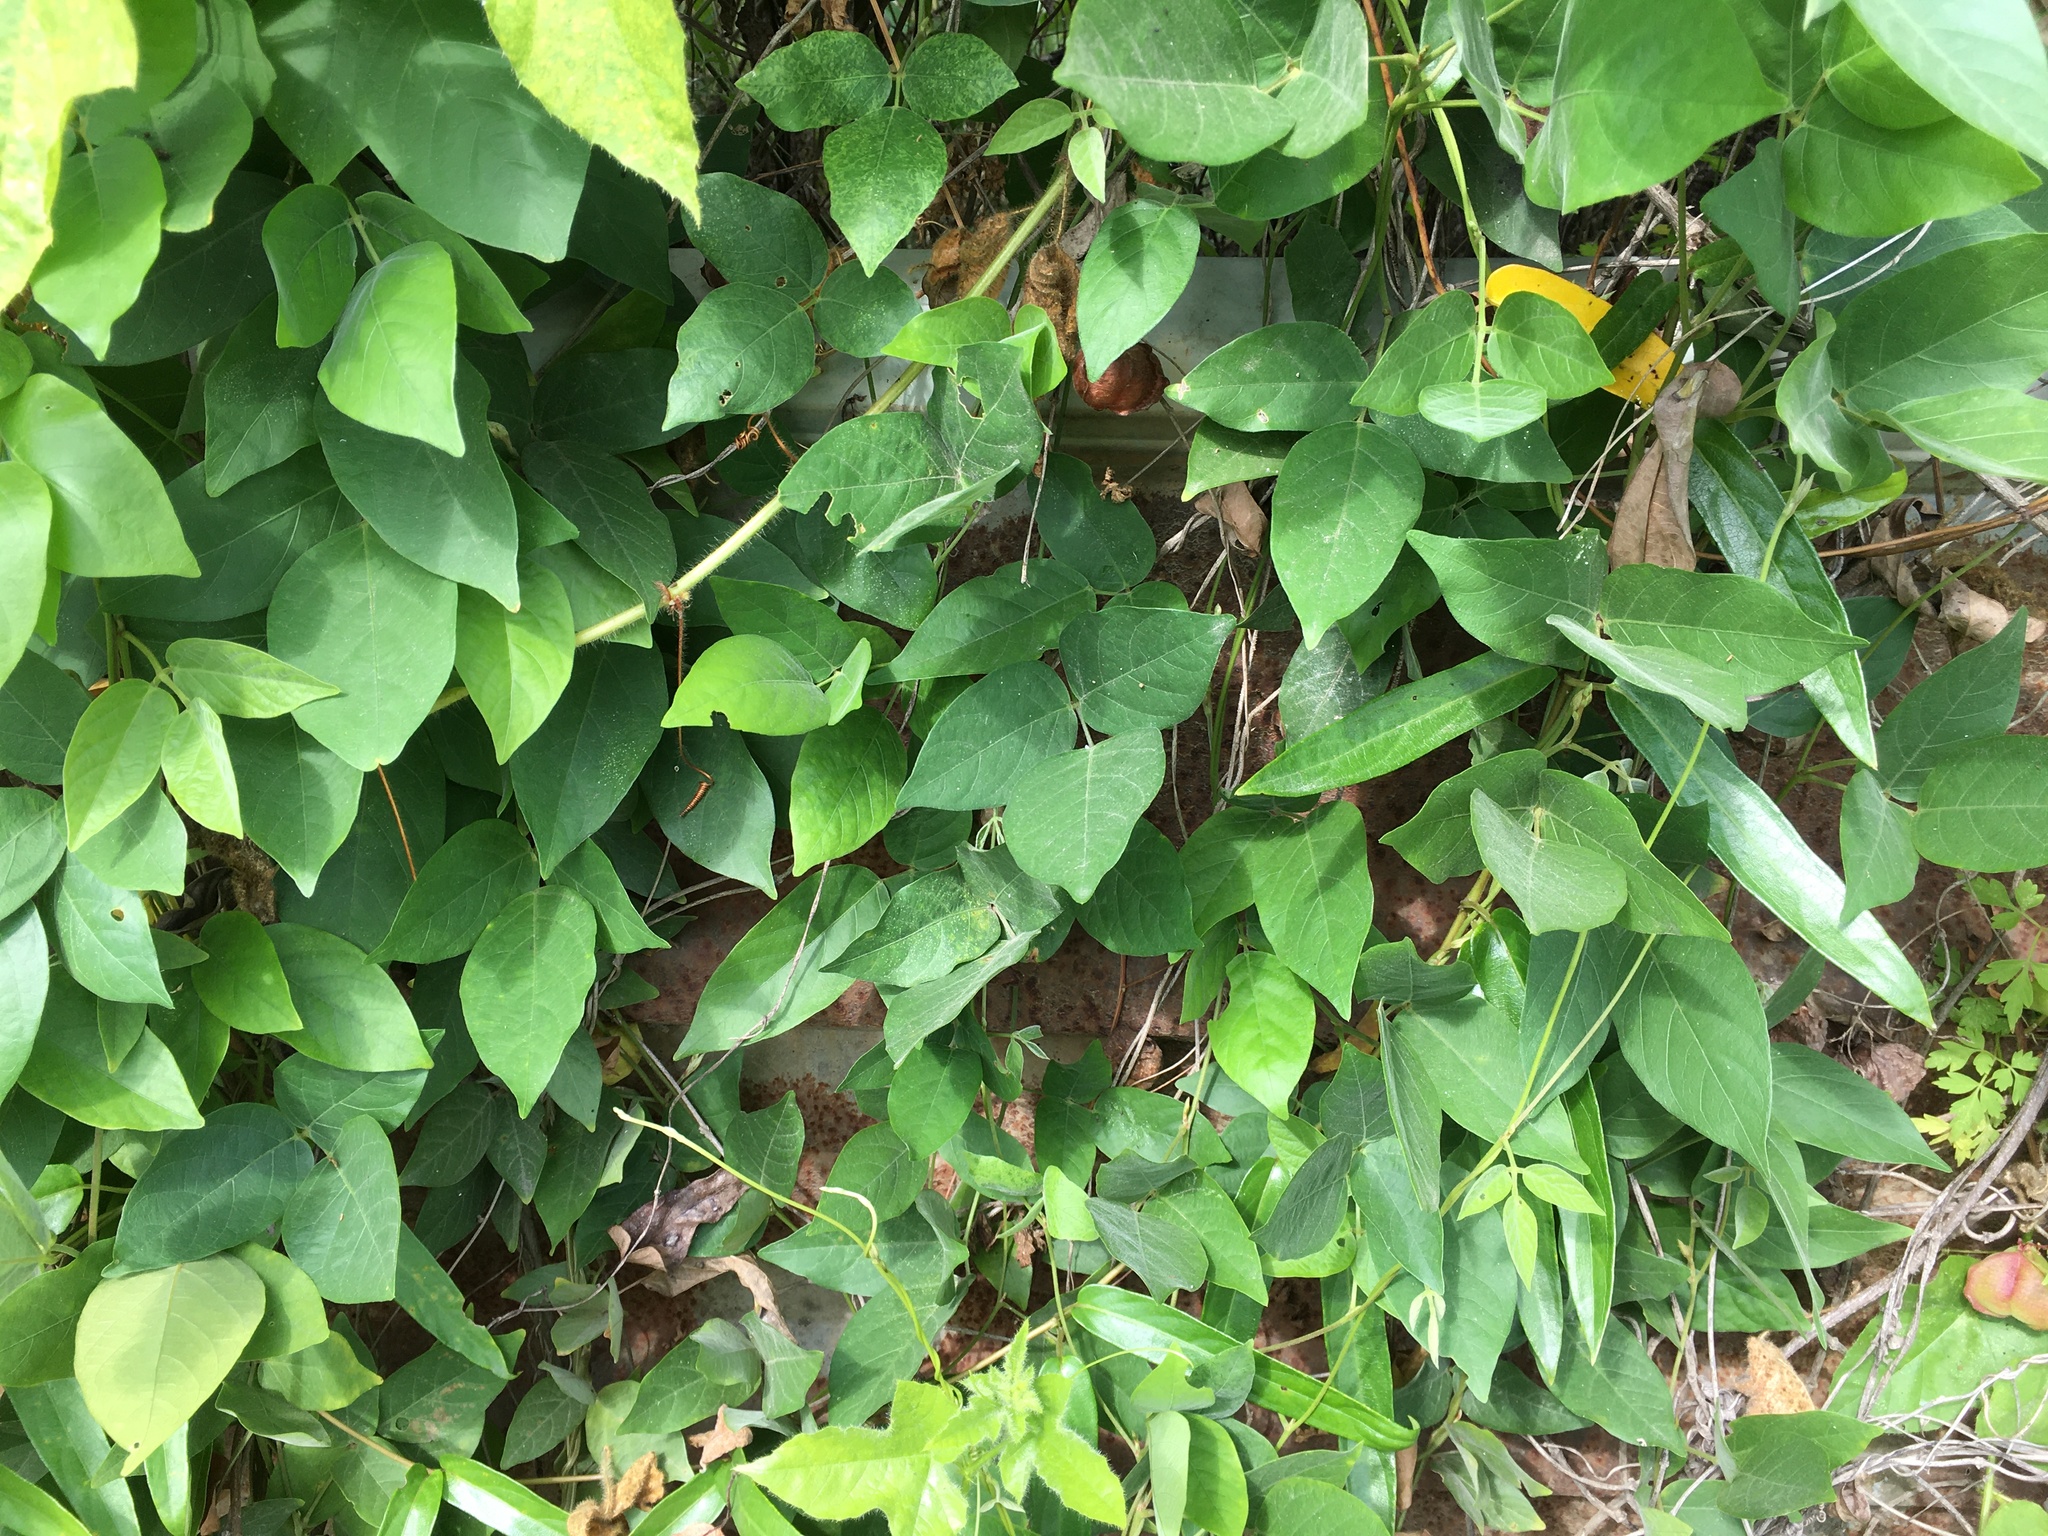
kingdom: Plantae
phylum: Tracheophyta
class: Magnoliopsida
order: Fabales
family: Fabaceae
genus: Centrosema
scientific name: Centrosema pubescens
